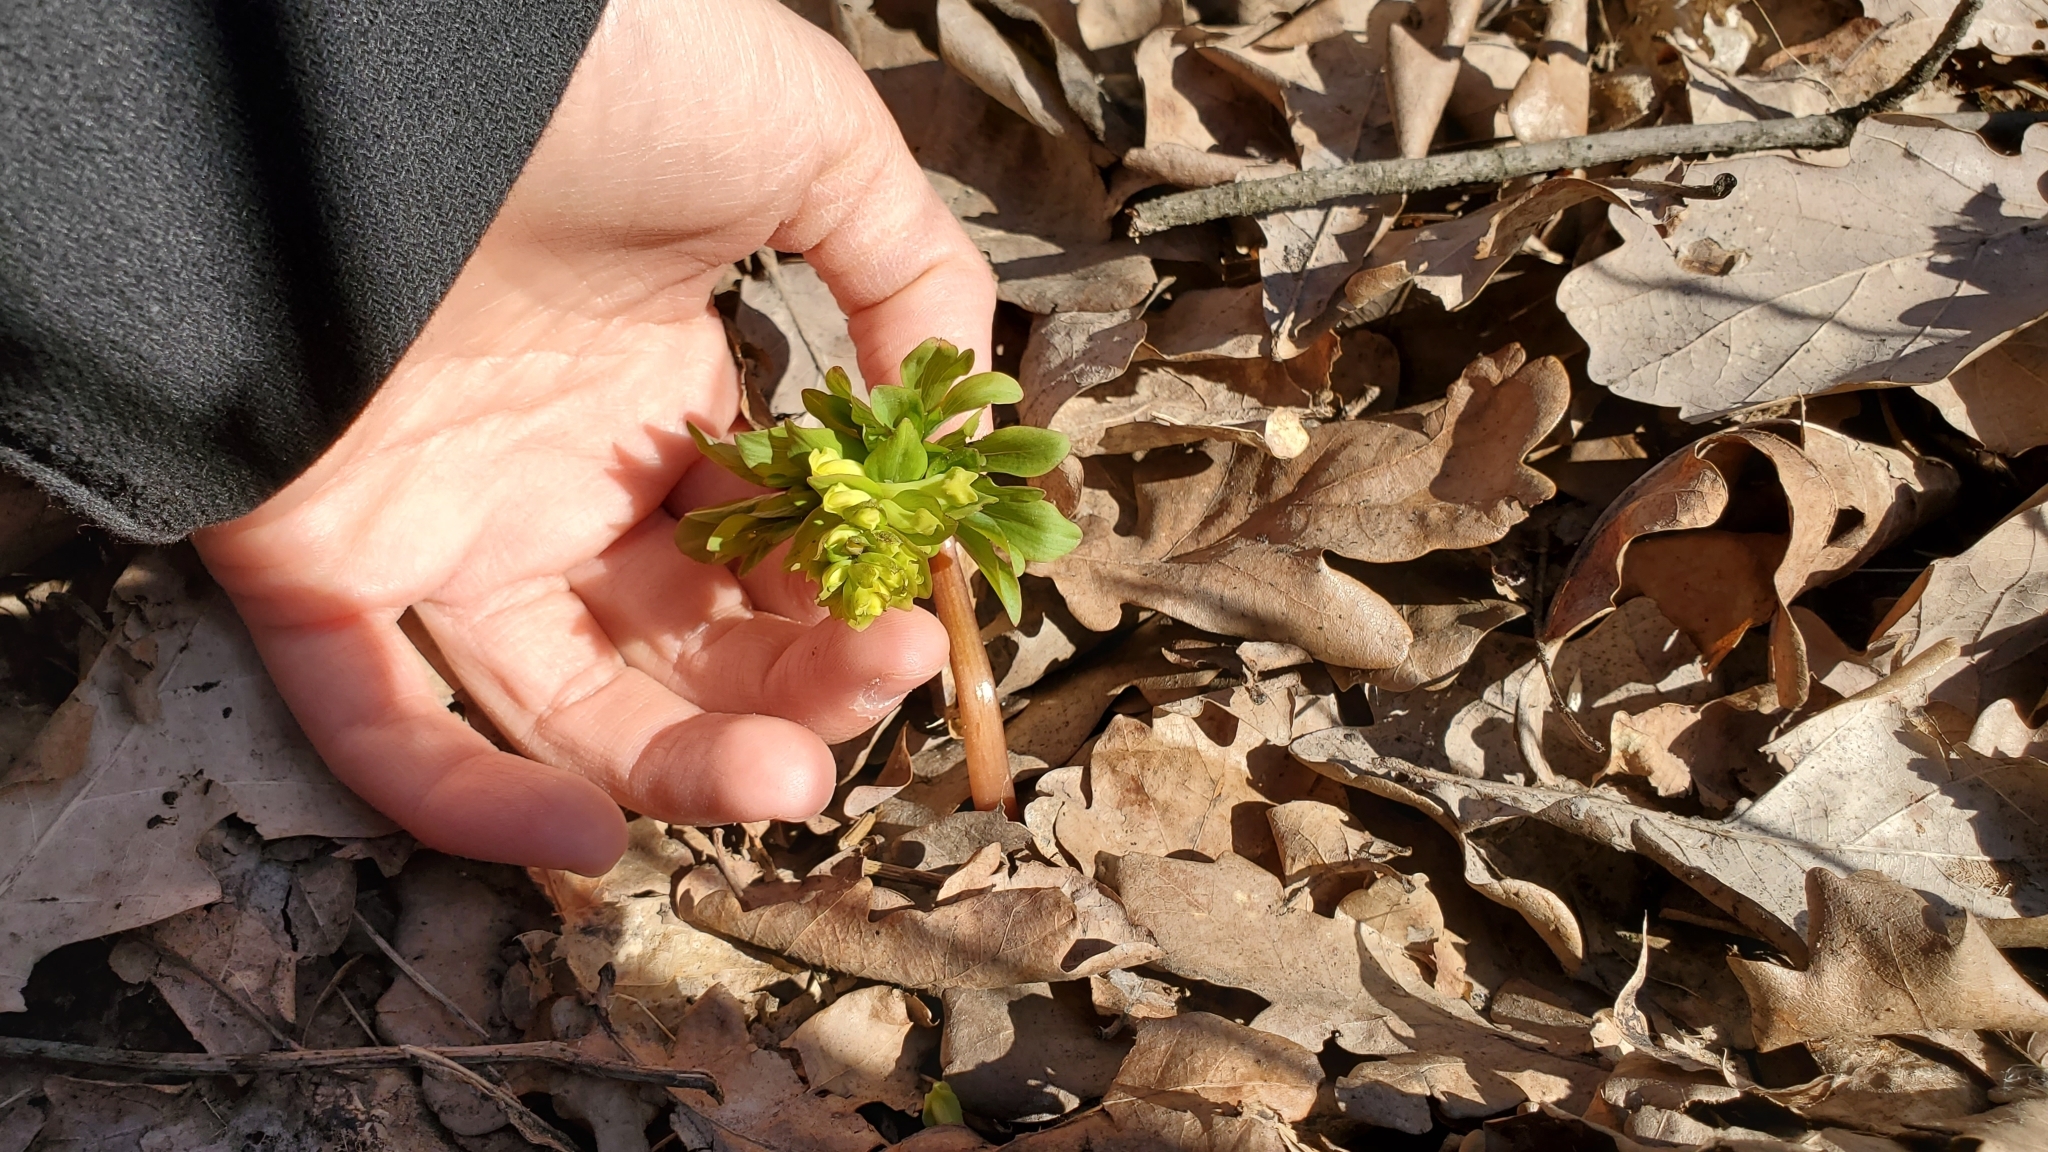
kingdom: Plantae
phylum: Tracheophyta
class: Magnoliopsida
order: Ranunculales
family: Papaveraceae
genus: Corydalis
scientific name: Corydalis cava
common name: Hollowroot
